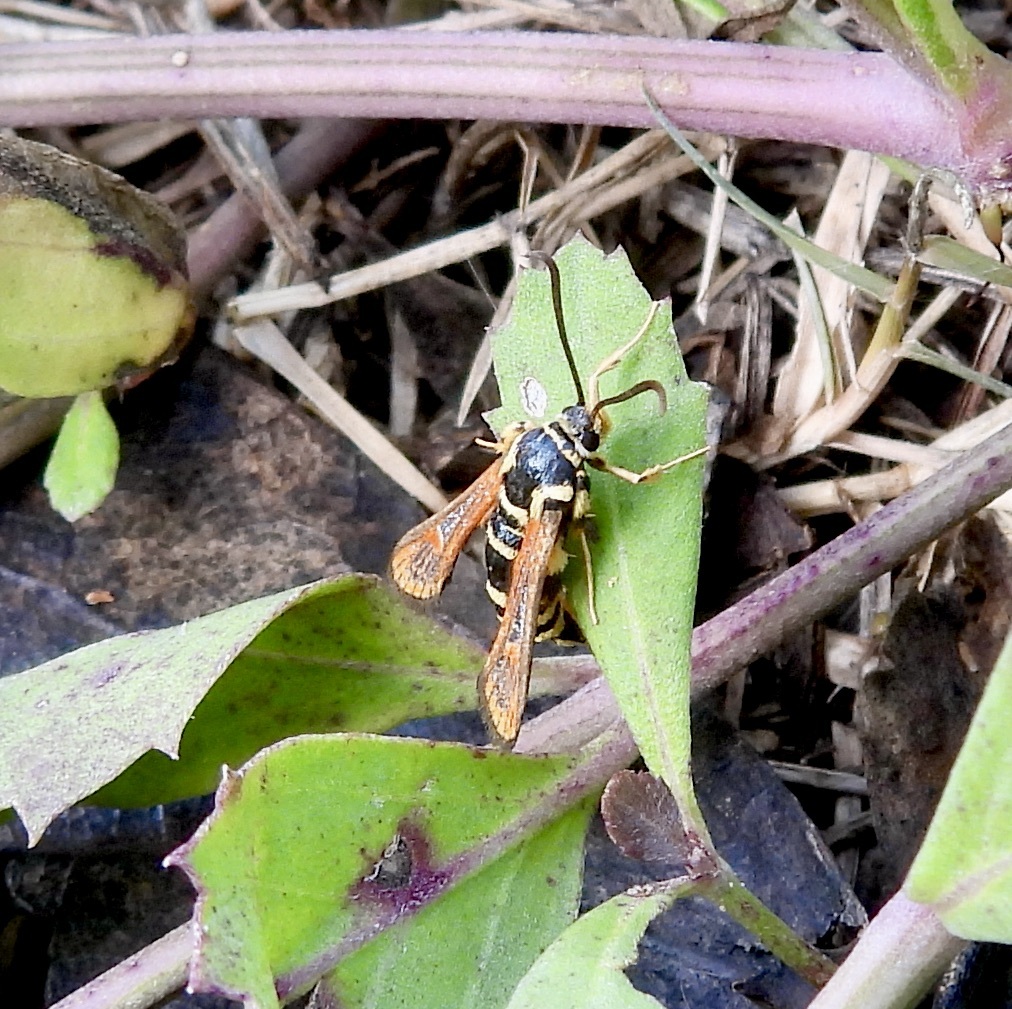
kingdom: Animalia
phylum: Arthropoda
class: Insecta
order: Lepidoptera
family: Sesiidae
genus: Carmenta
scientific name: Carmenta mimuli
